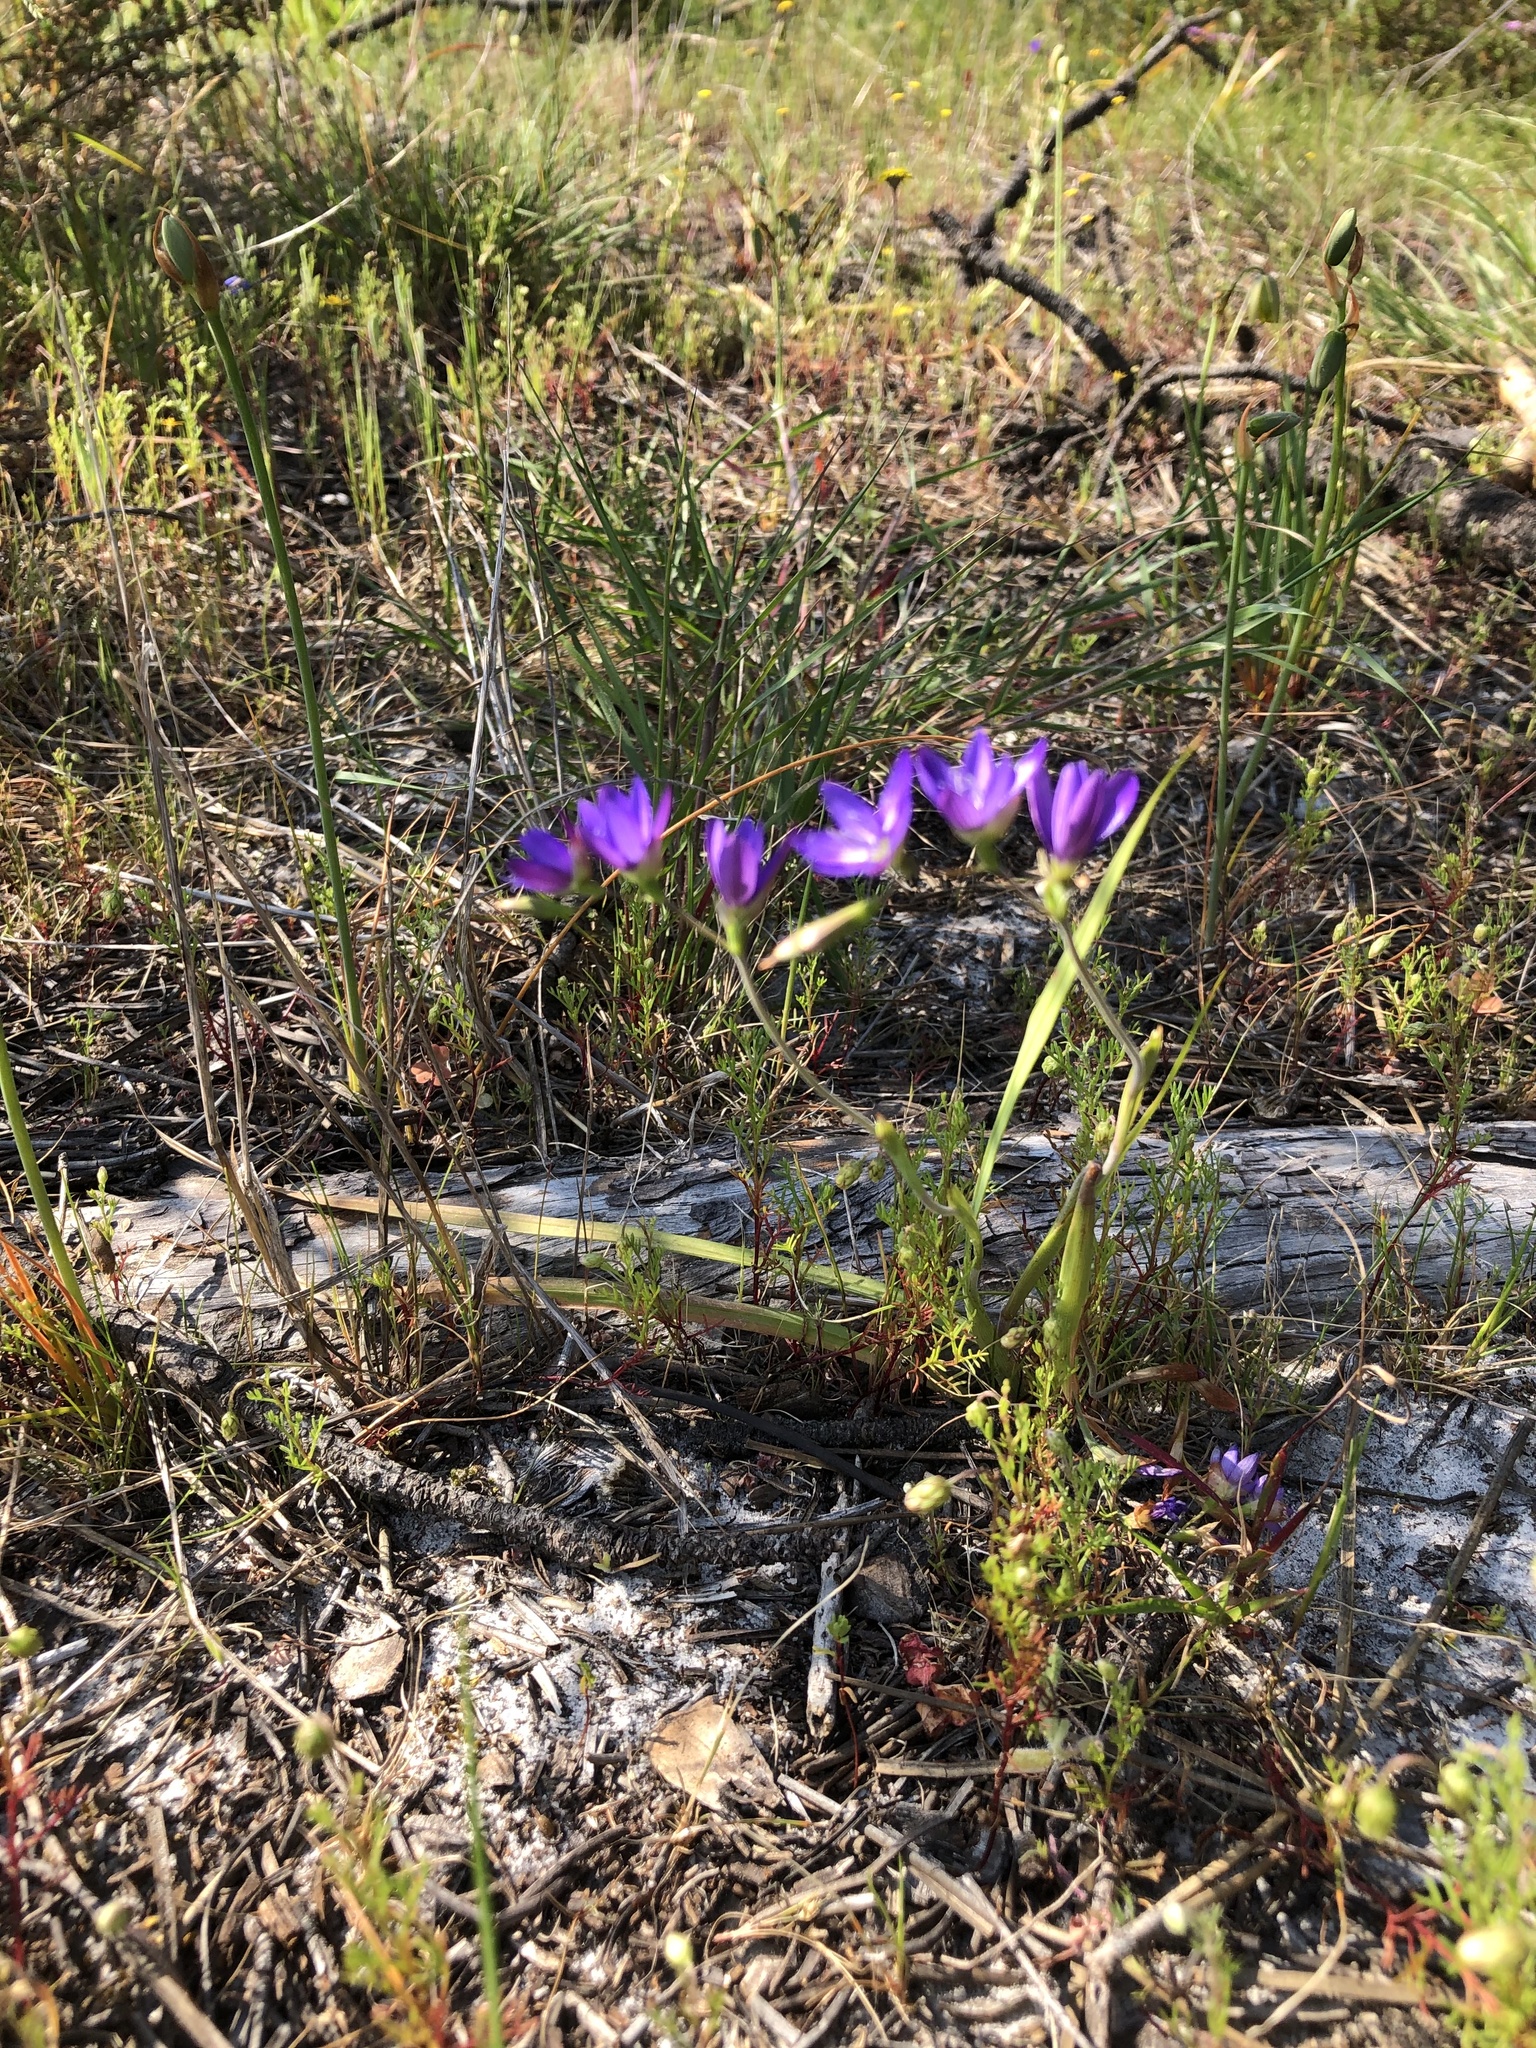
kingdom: Plantae
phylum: Tracheophyta
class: Liliopsida
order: Asparagales
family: Iridaceae
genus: Geissorhiza
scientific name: Geissorhiza aspera
